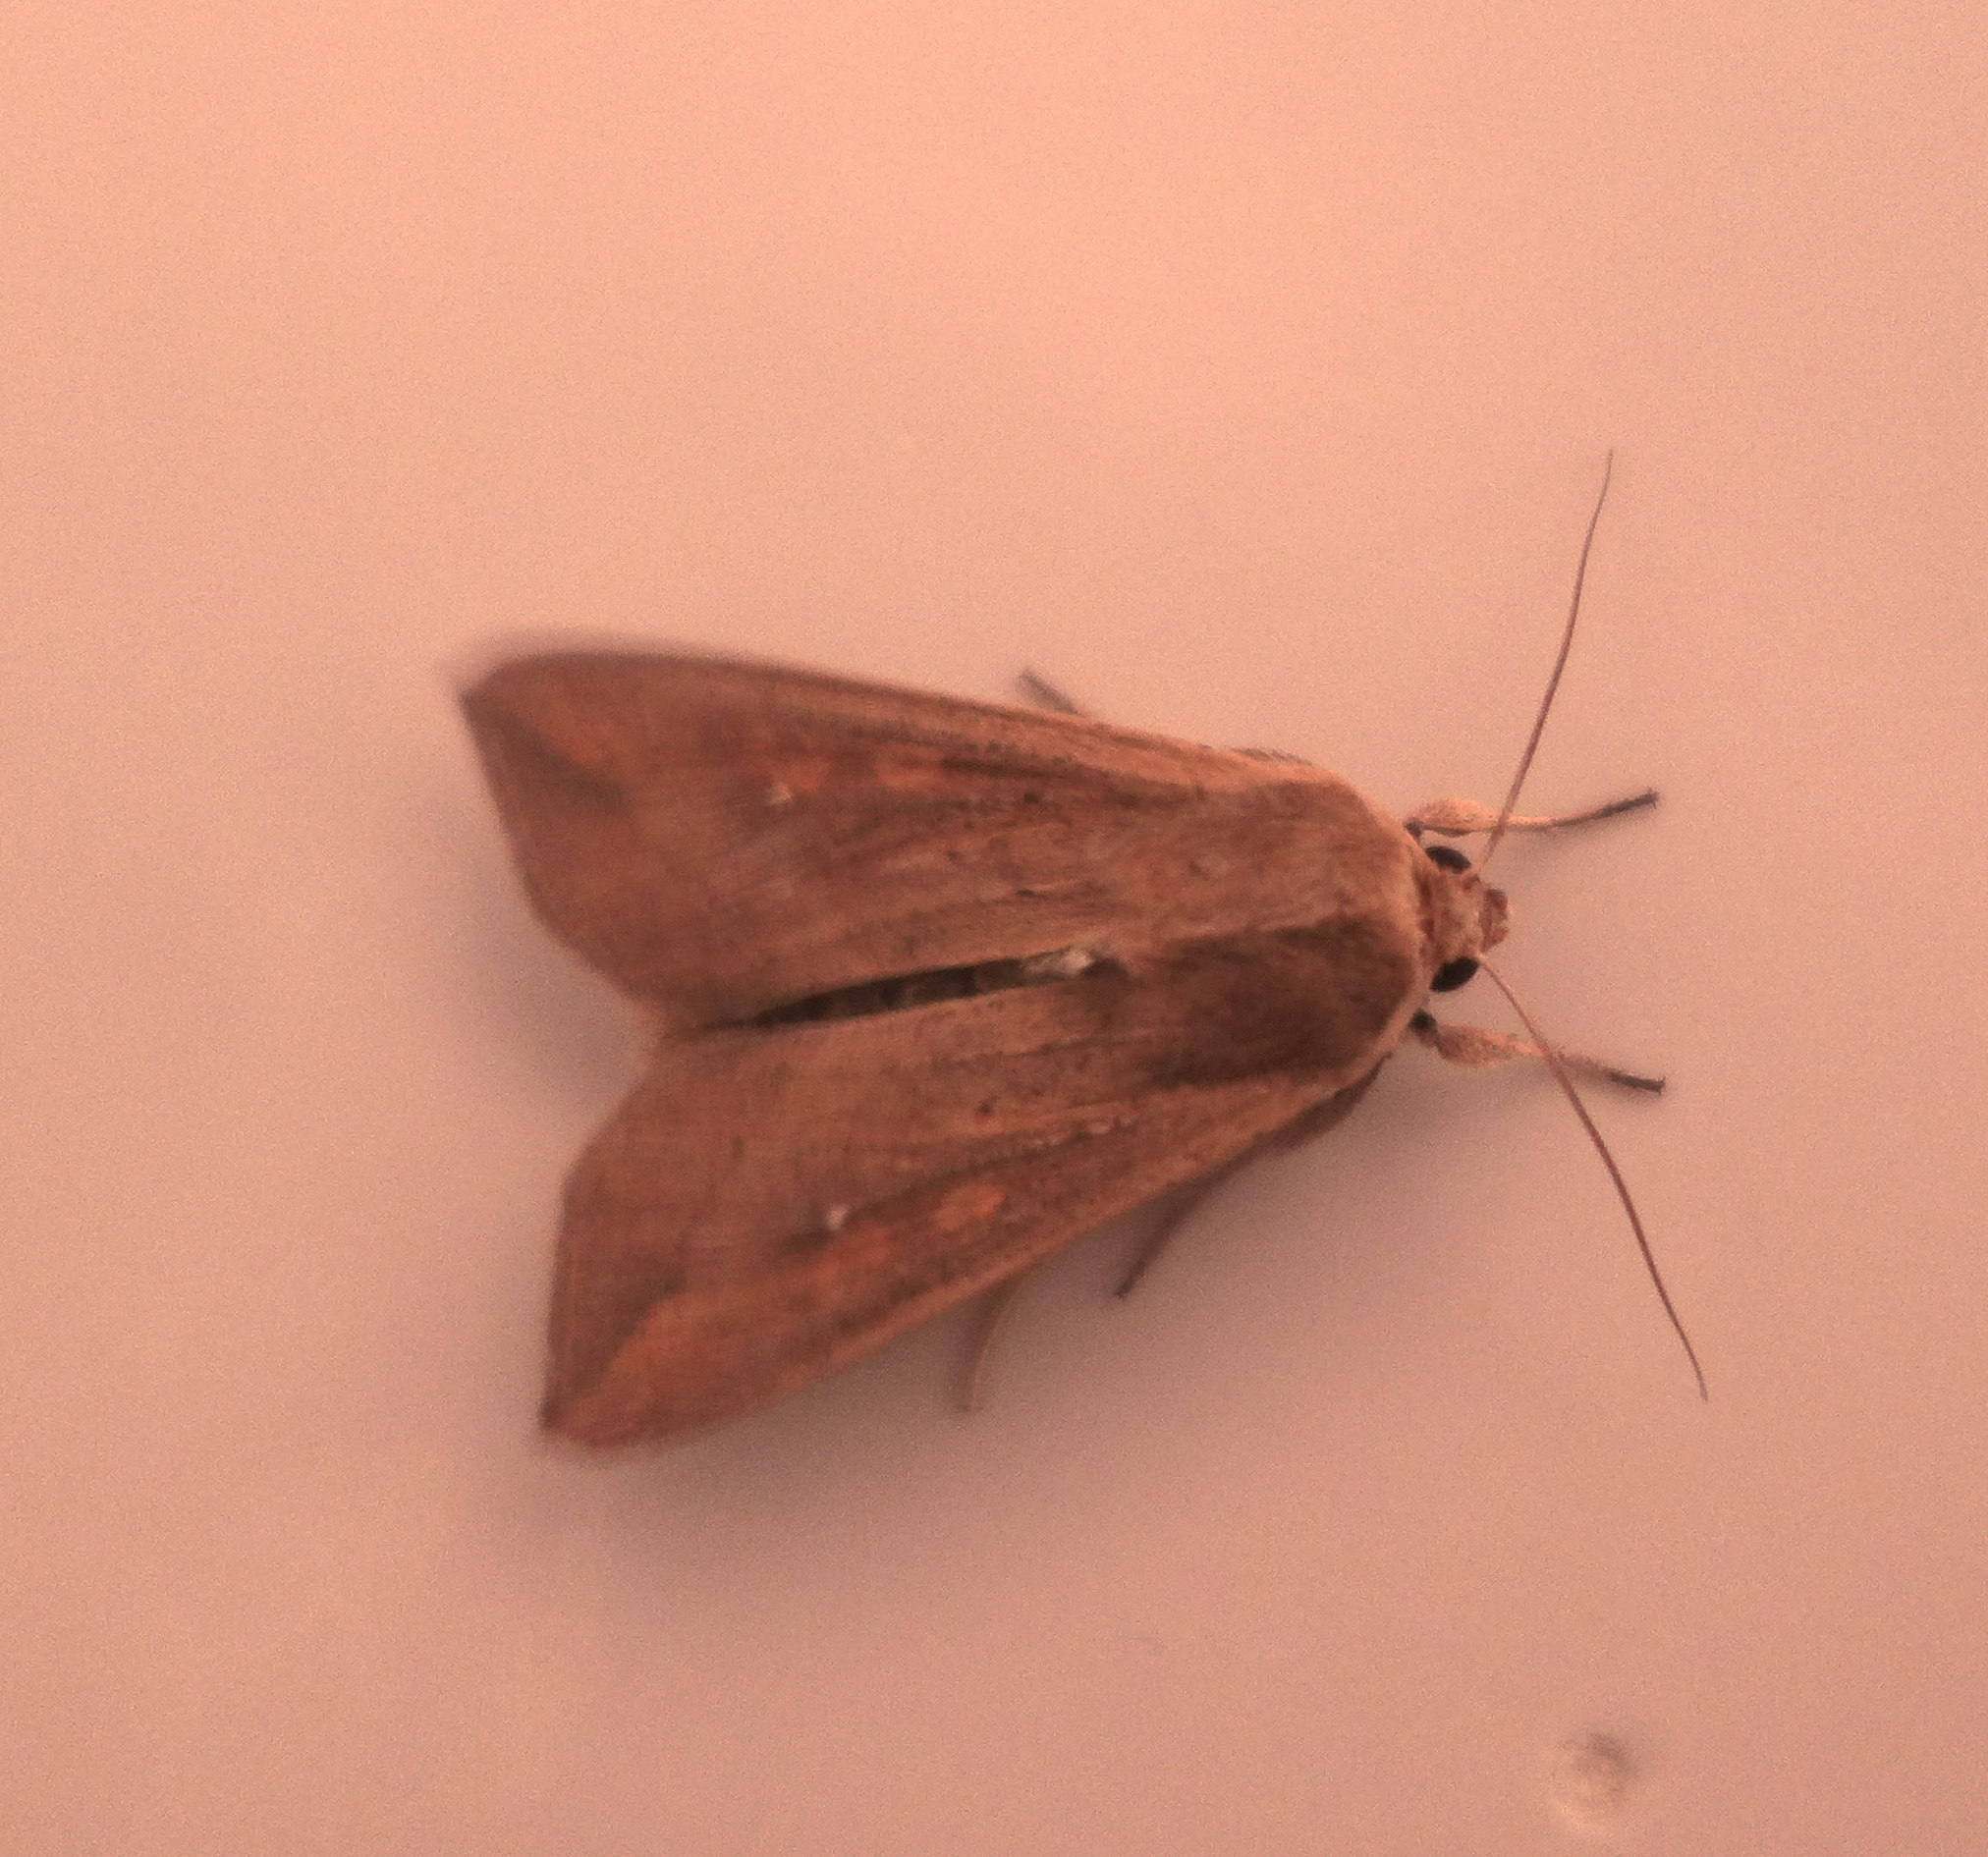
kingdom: Animalia
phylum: Arthropoda
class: Insecta
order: Lepidoptera
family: Noctuidae
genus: Mythimna
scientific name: Mythimna unipuncta
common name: White-speck
